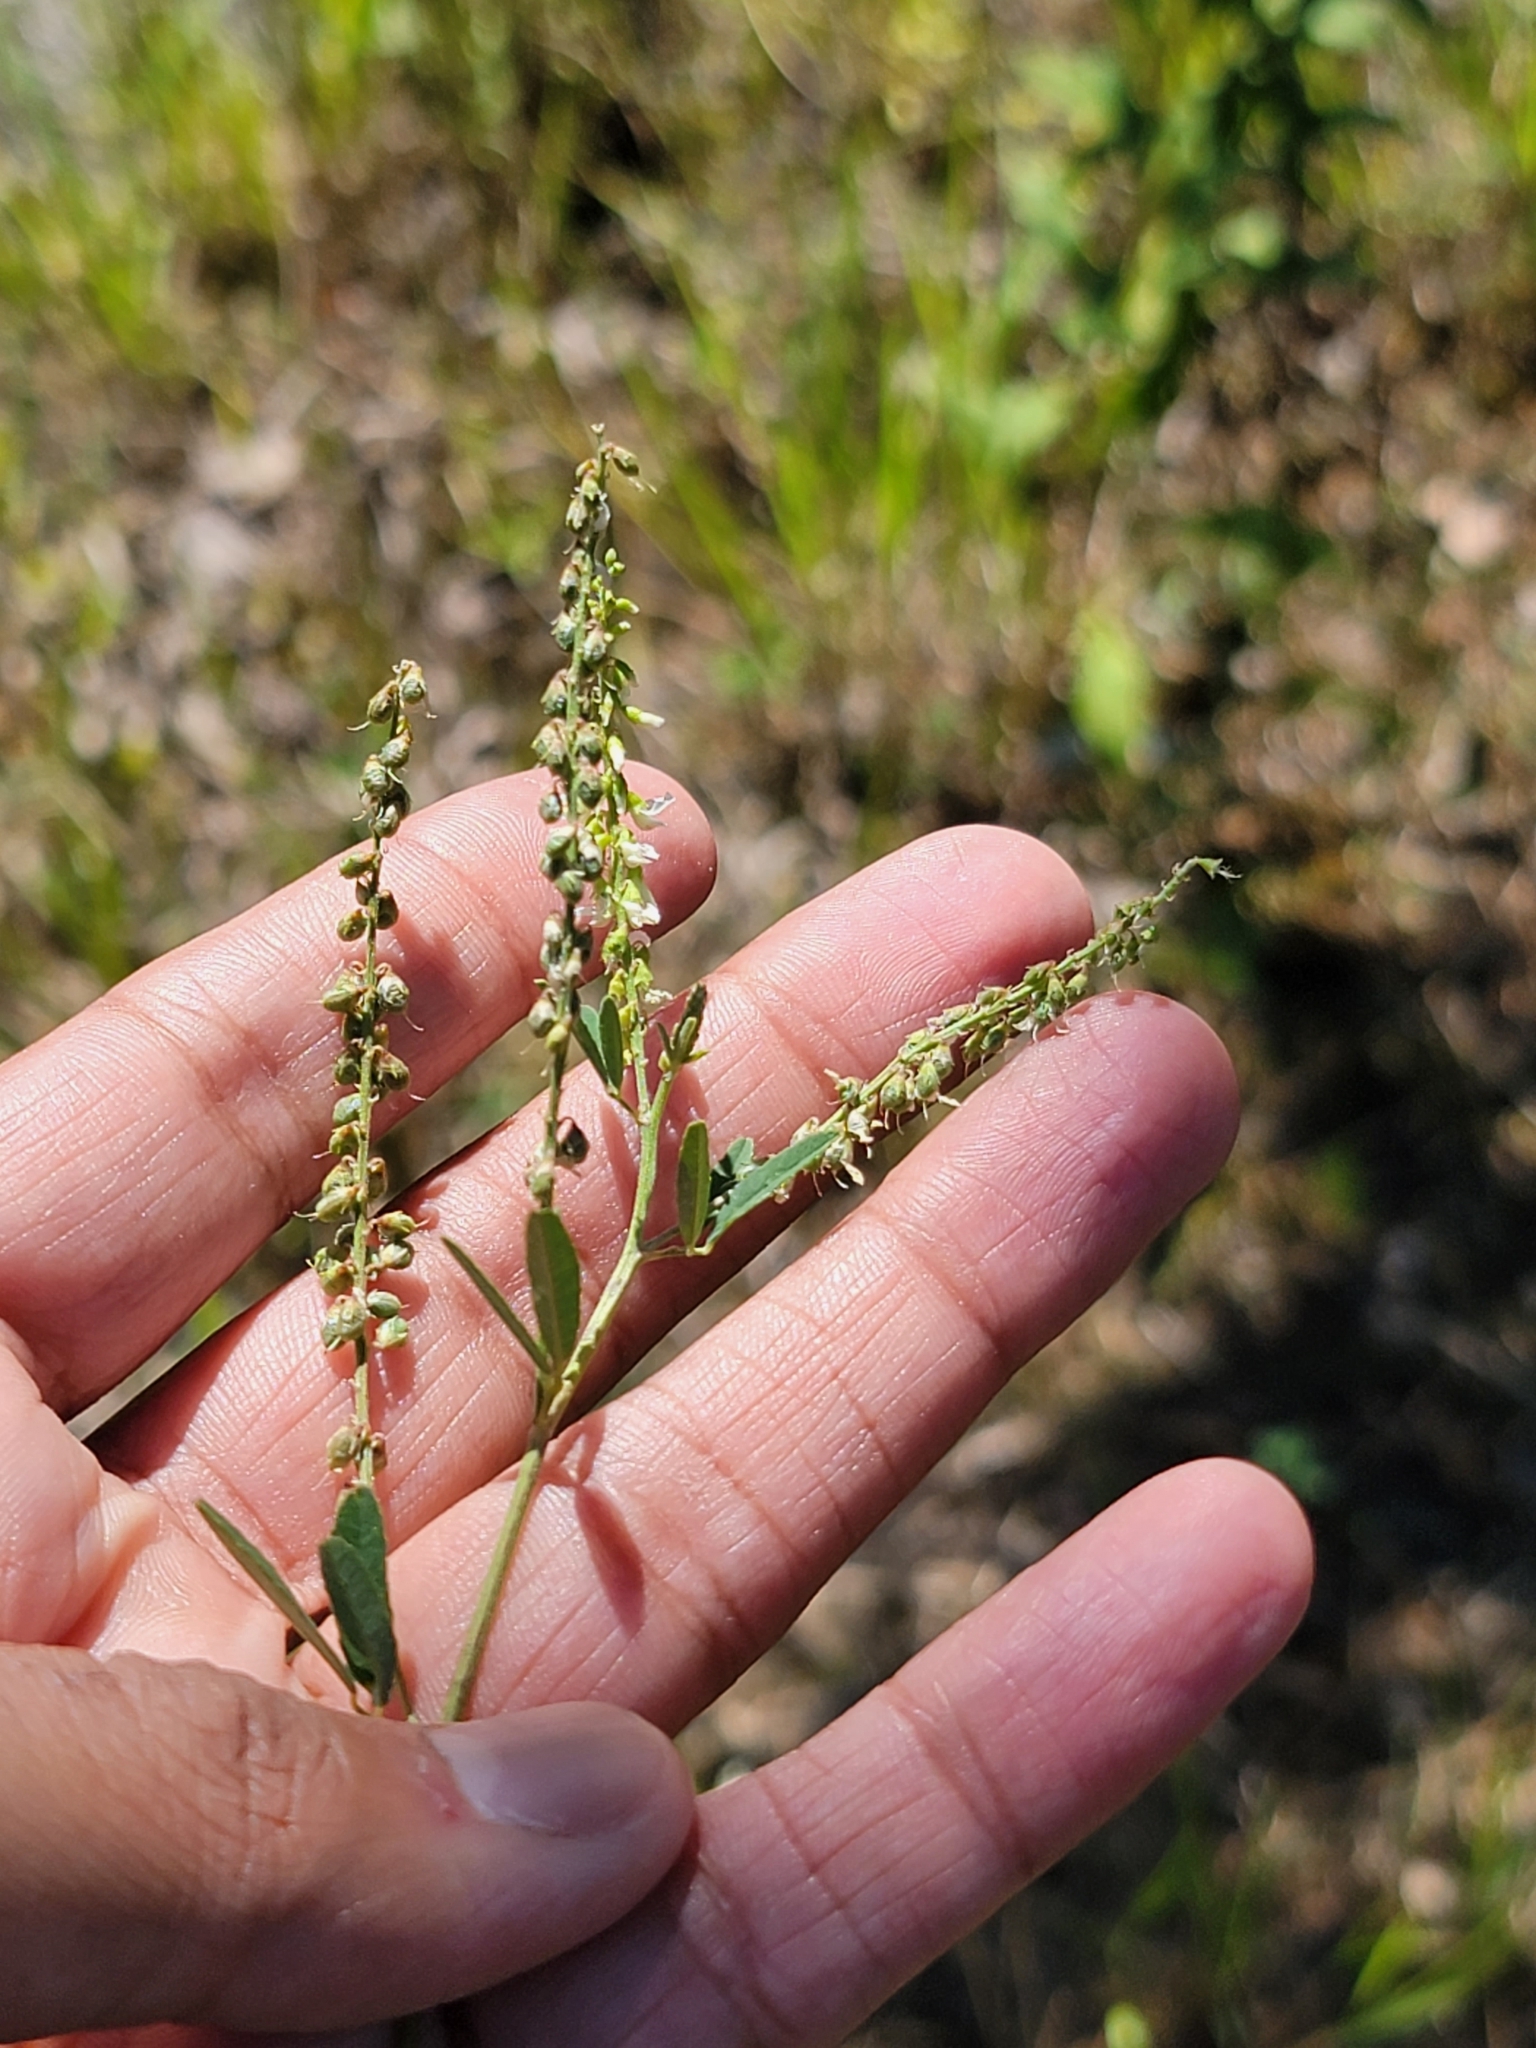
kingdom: Plantae
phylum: Tracheophyta
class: Magnoliopsida
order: Fabales
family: Fabaceae
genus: Melilotus
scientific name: Melilotus albus
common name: White melilot
